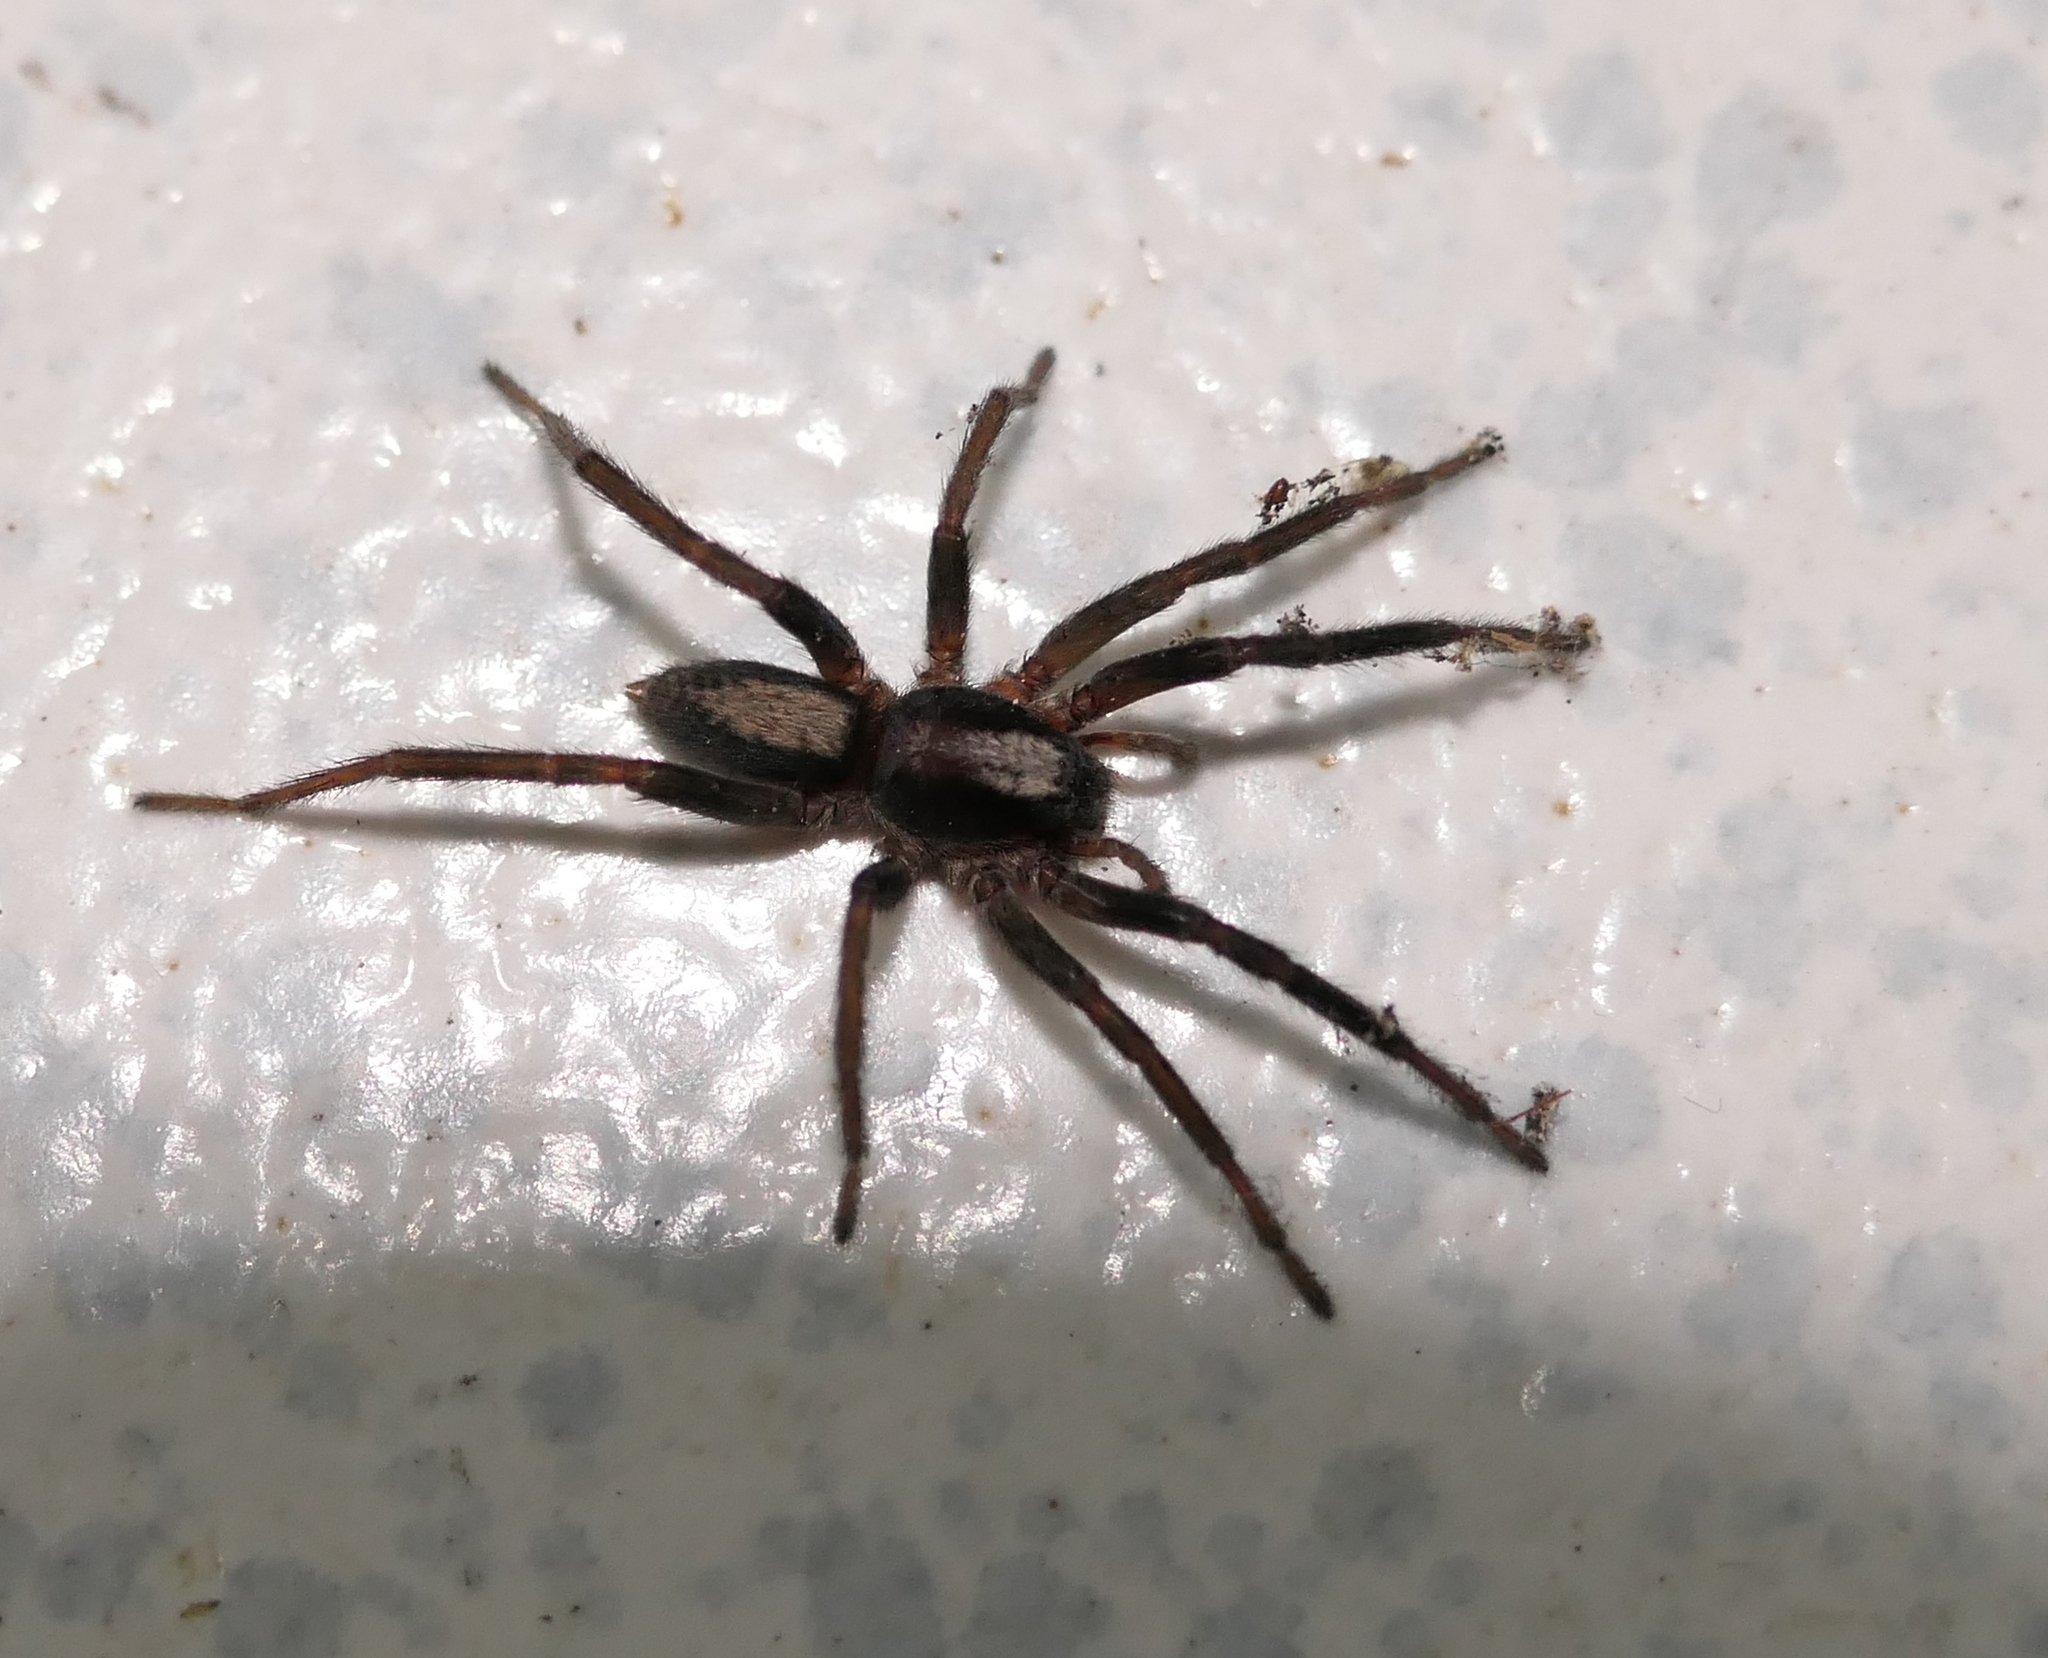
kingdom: Animalia
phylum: Arthropoda
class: Arachnida
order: Araneae
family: Miturgidae
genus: Teminius
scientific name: Teminius insularis
